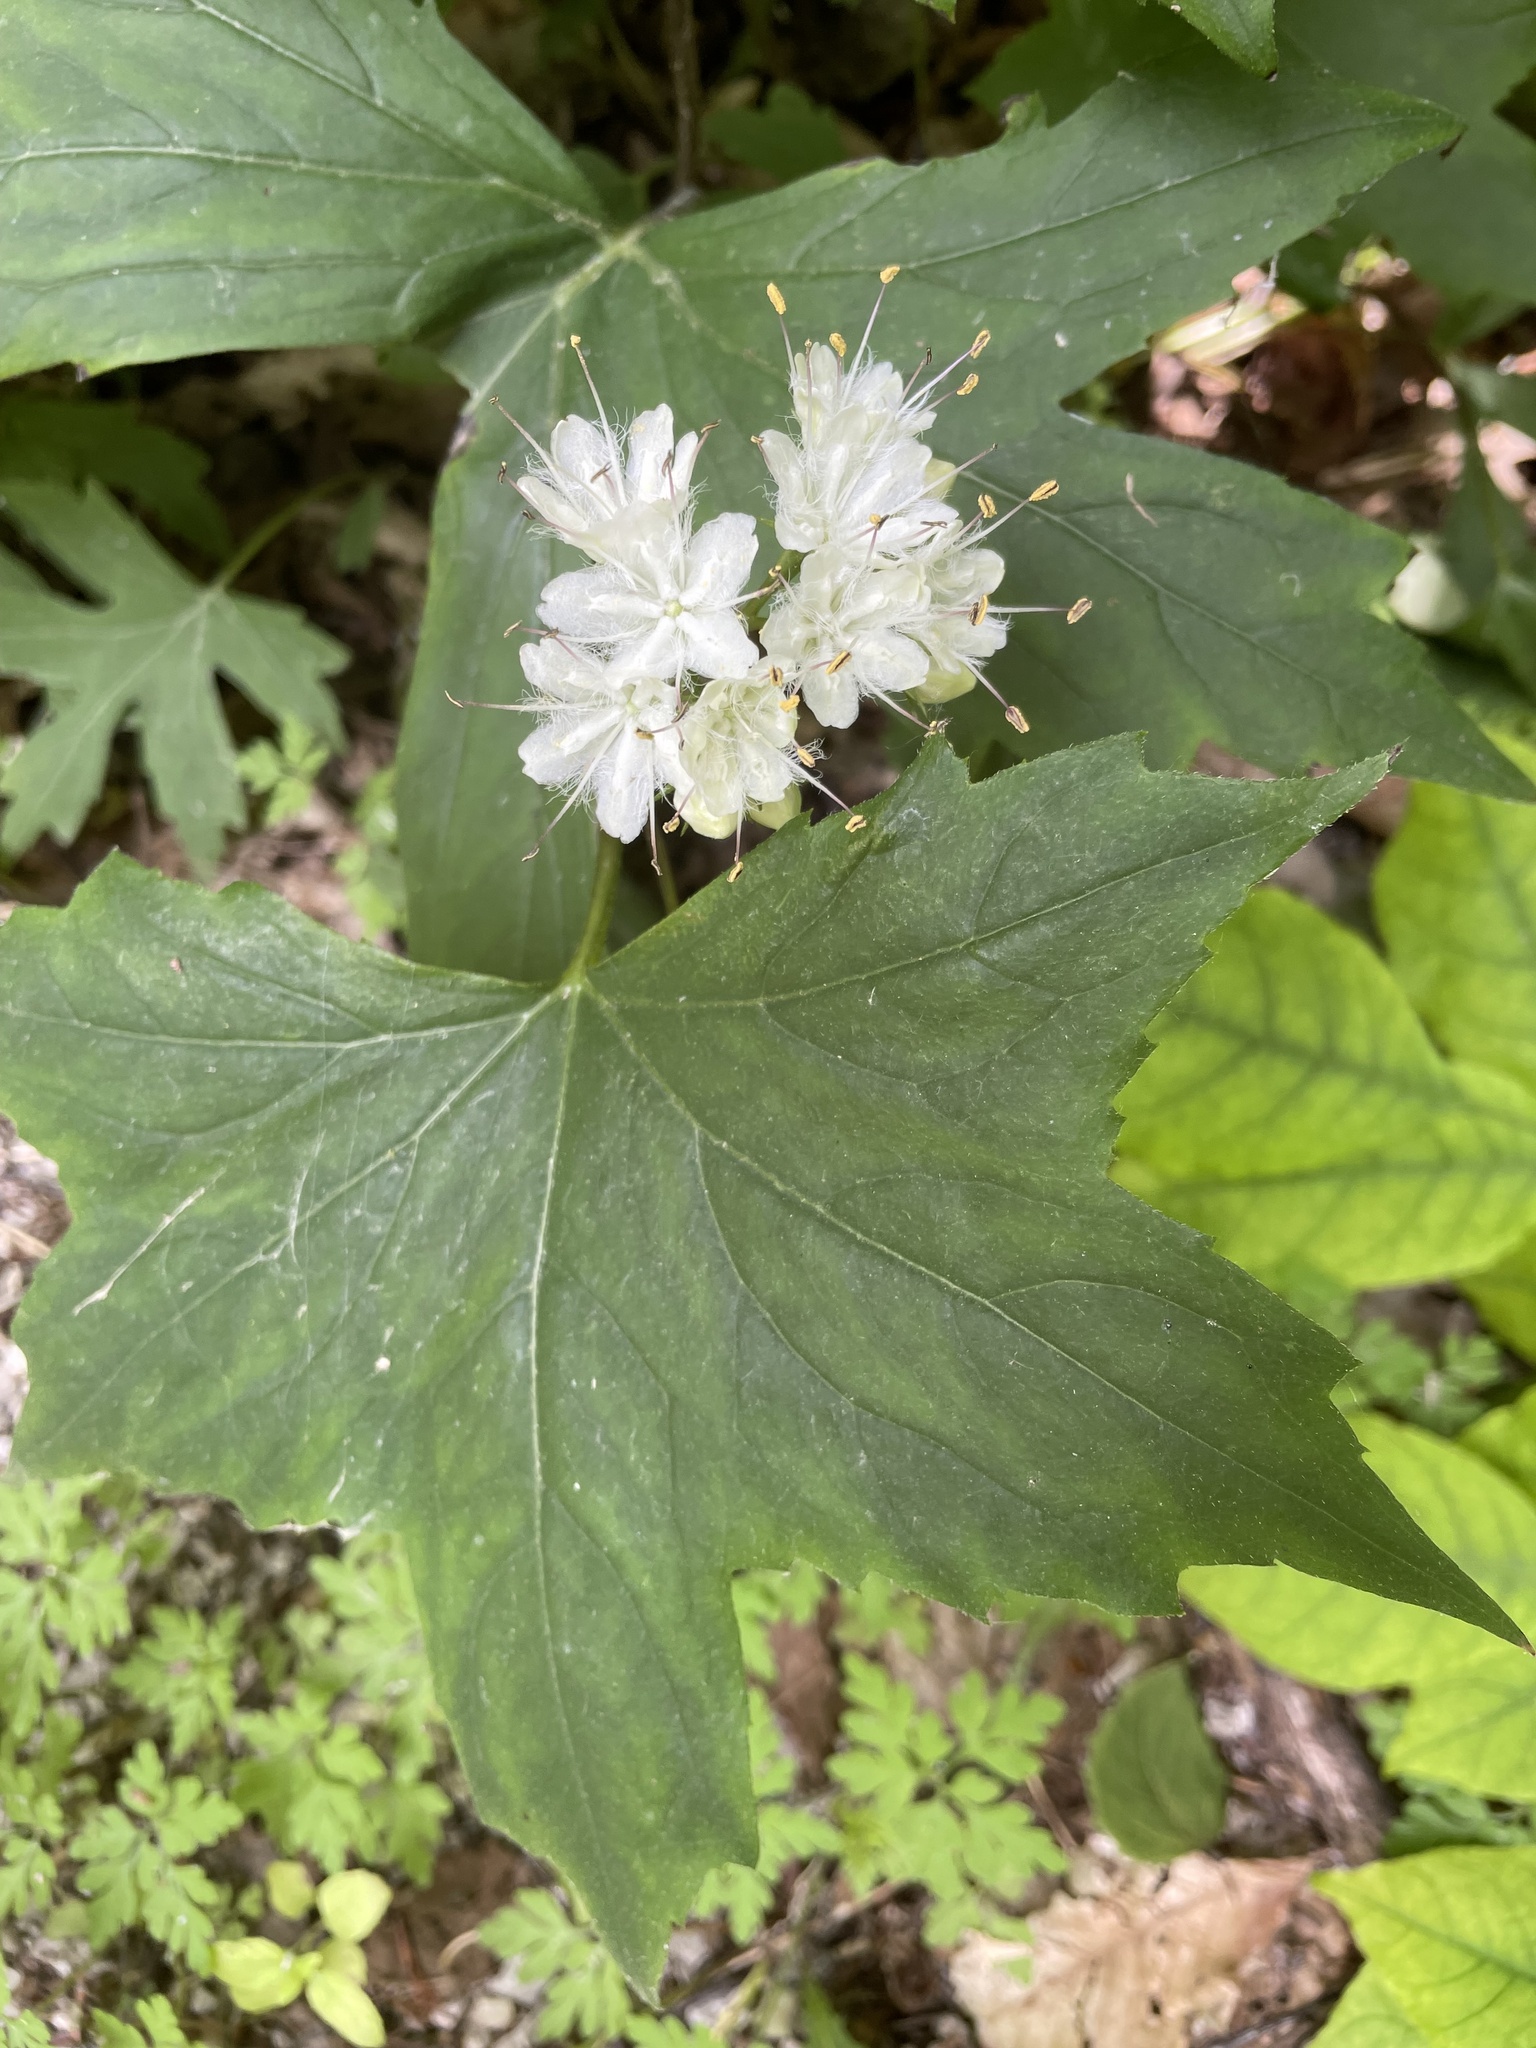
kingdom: Plantae
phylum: Tracheophyta
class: Magnoliopsida
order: Boraginales
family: Hydrophyllaceae
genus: Hydrophyllum
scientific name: Hydrophyllum canadense
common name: Canada waterleaf
